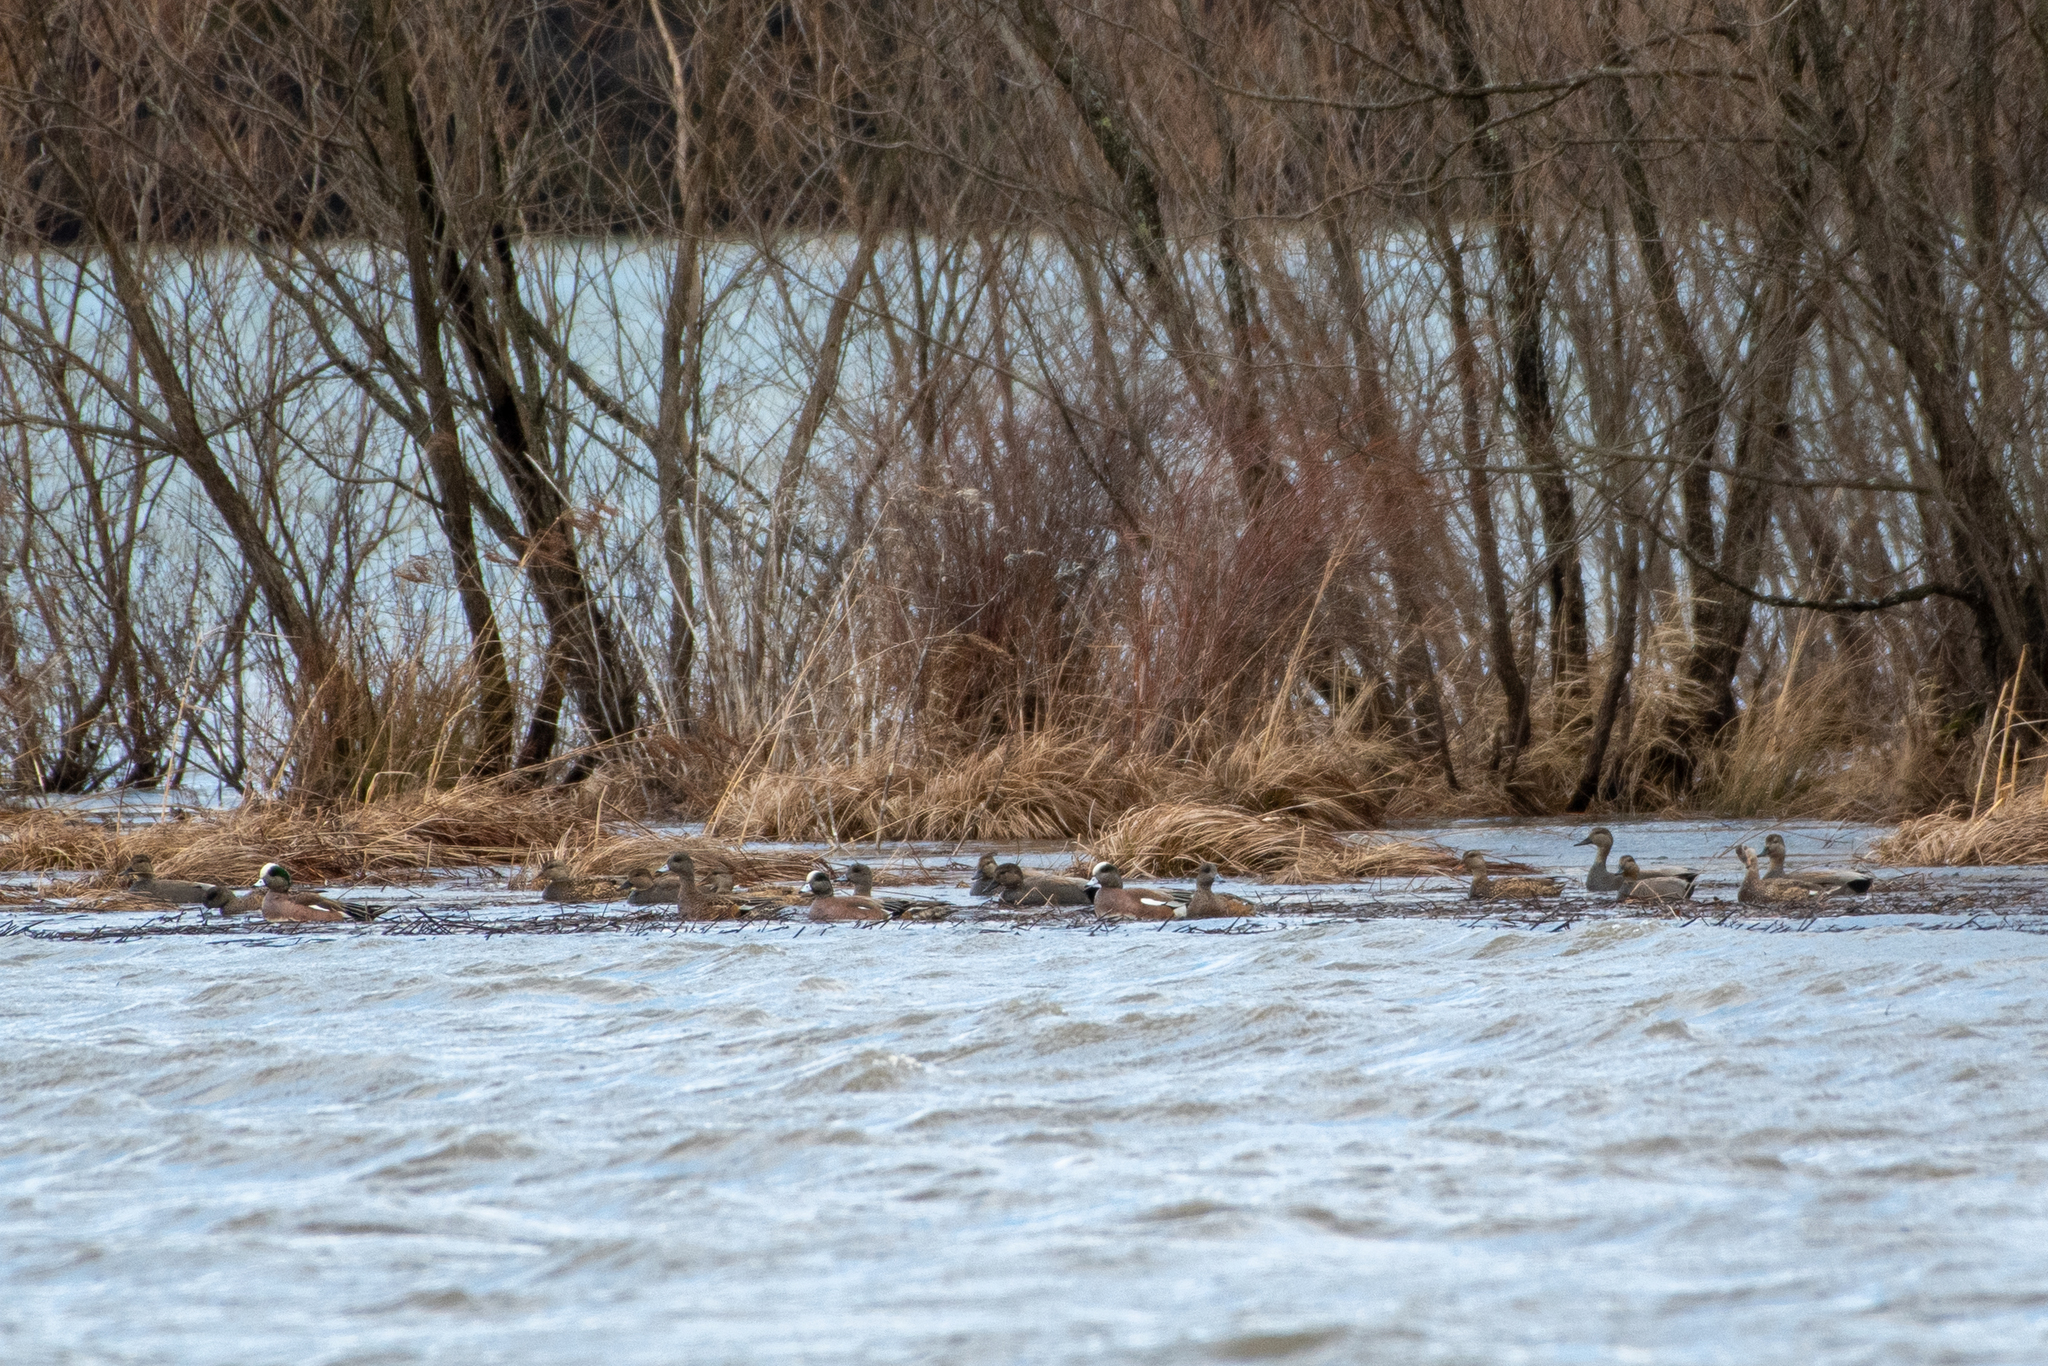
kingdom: Animalia
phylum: Chordata
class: Aves
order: Anseriformes
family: Anatidae
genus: Mareca
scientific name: Mareca americana
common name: American wigeon
